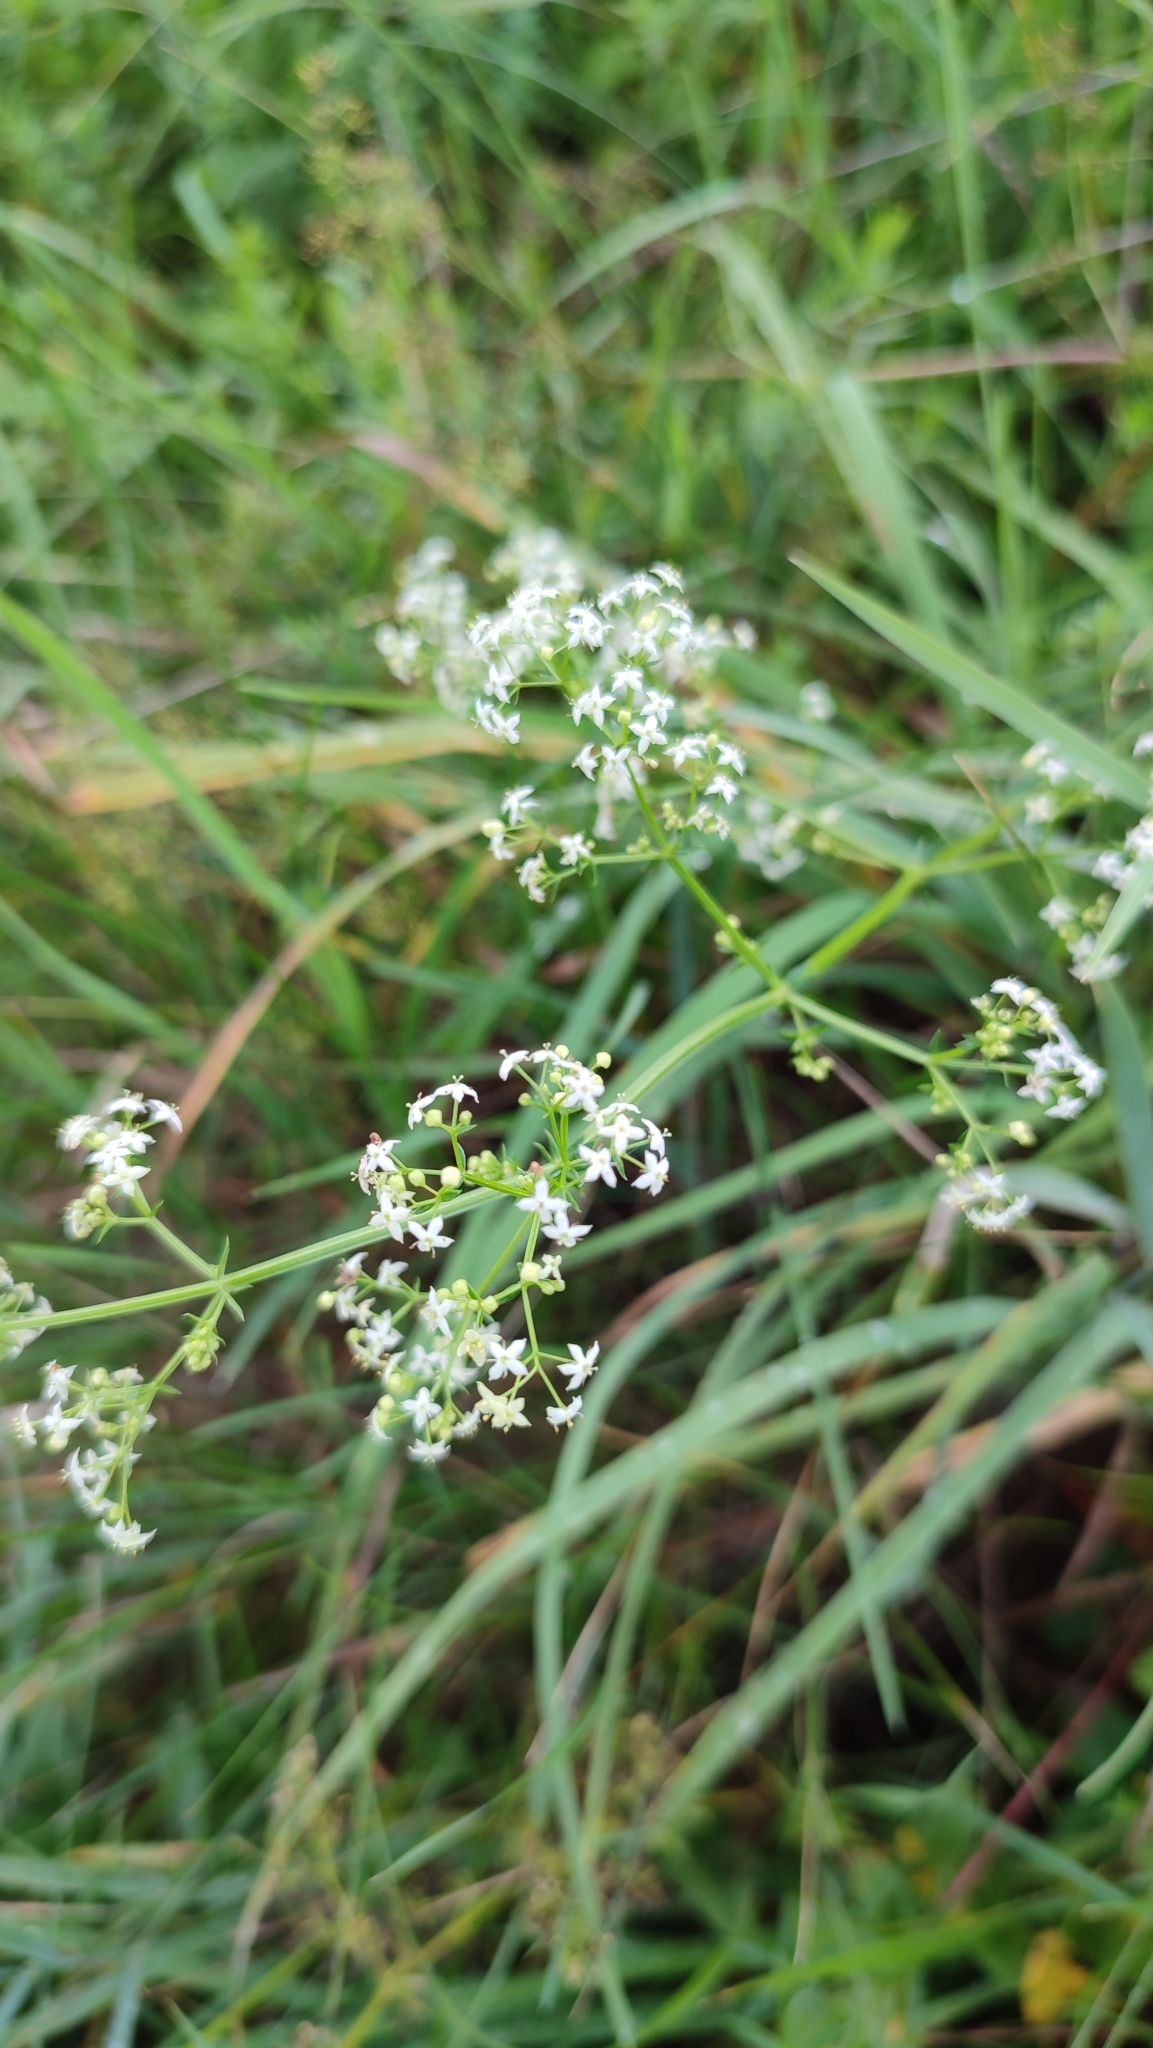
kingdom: Plantae
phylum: Tracheophyta
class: Magnoliopsida
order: Gentianales
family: Rubiaceae
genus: Galium
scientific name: Galium mollugo
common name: Hedge bedstraw
